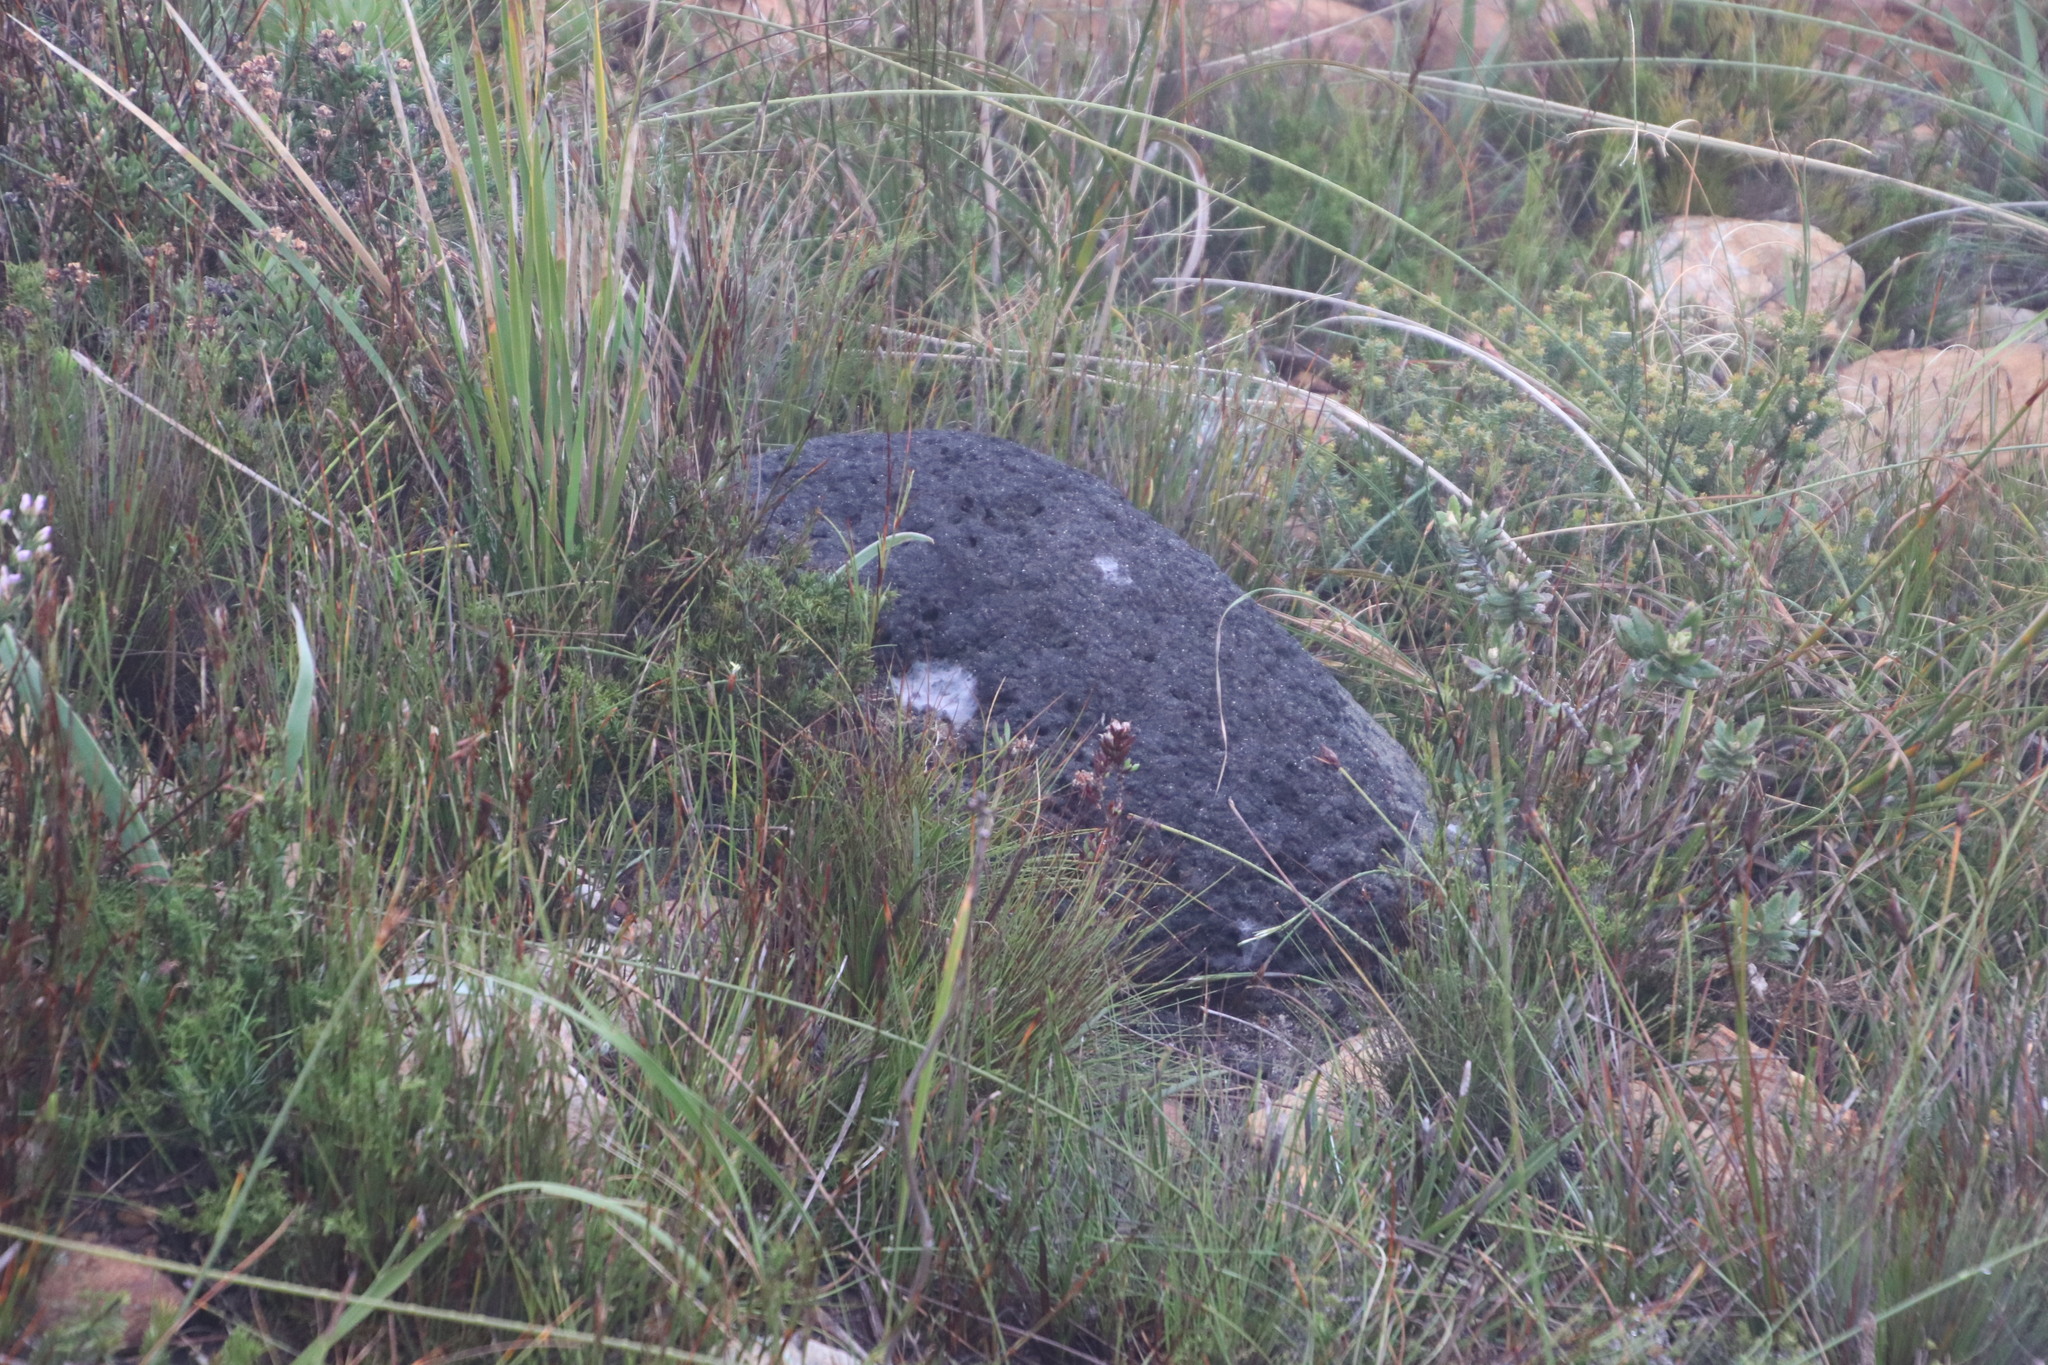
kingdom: Animalia
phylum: Arthropoda
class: Insecta
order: Blattodea
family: Termitidae
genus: Amitermes
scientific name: Amitermes hastatus
